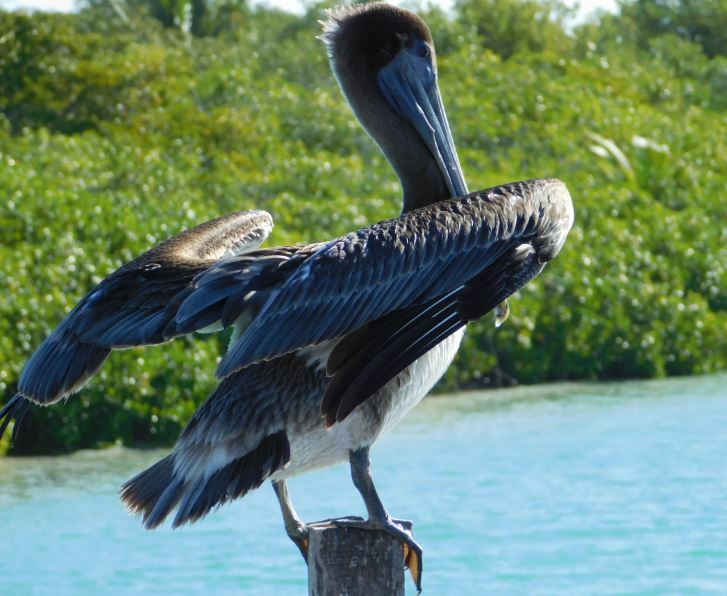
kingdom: Animalia
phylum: Chordata
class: Aves
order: Pelecaniformes
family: Pelecanidae
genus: Pelecanus
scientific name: Pelecanus occidentalis
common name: Brown pelican
